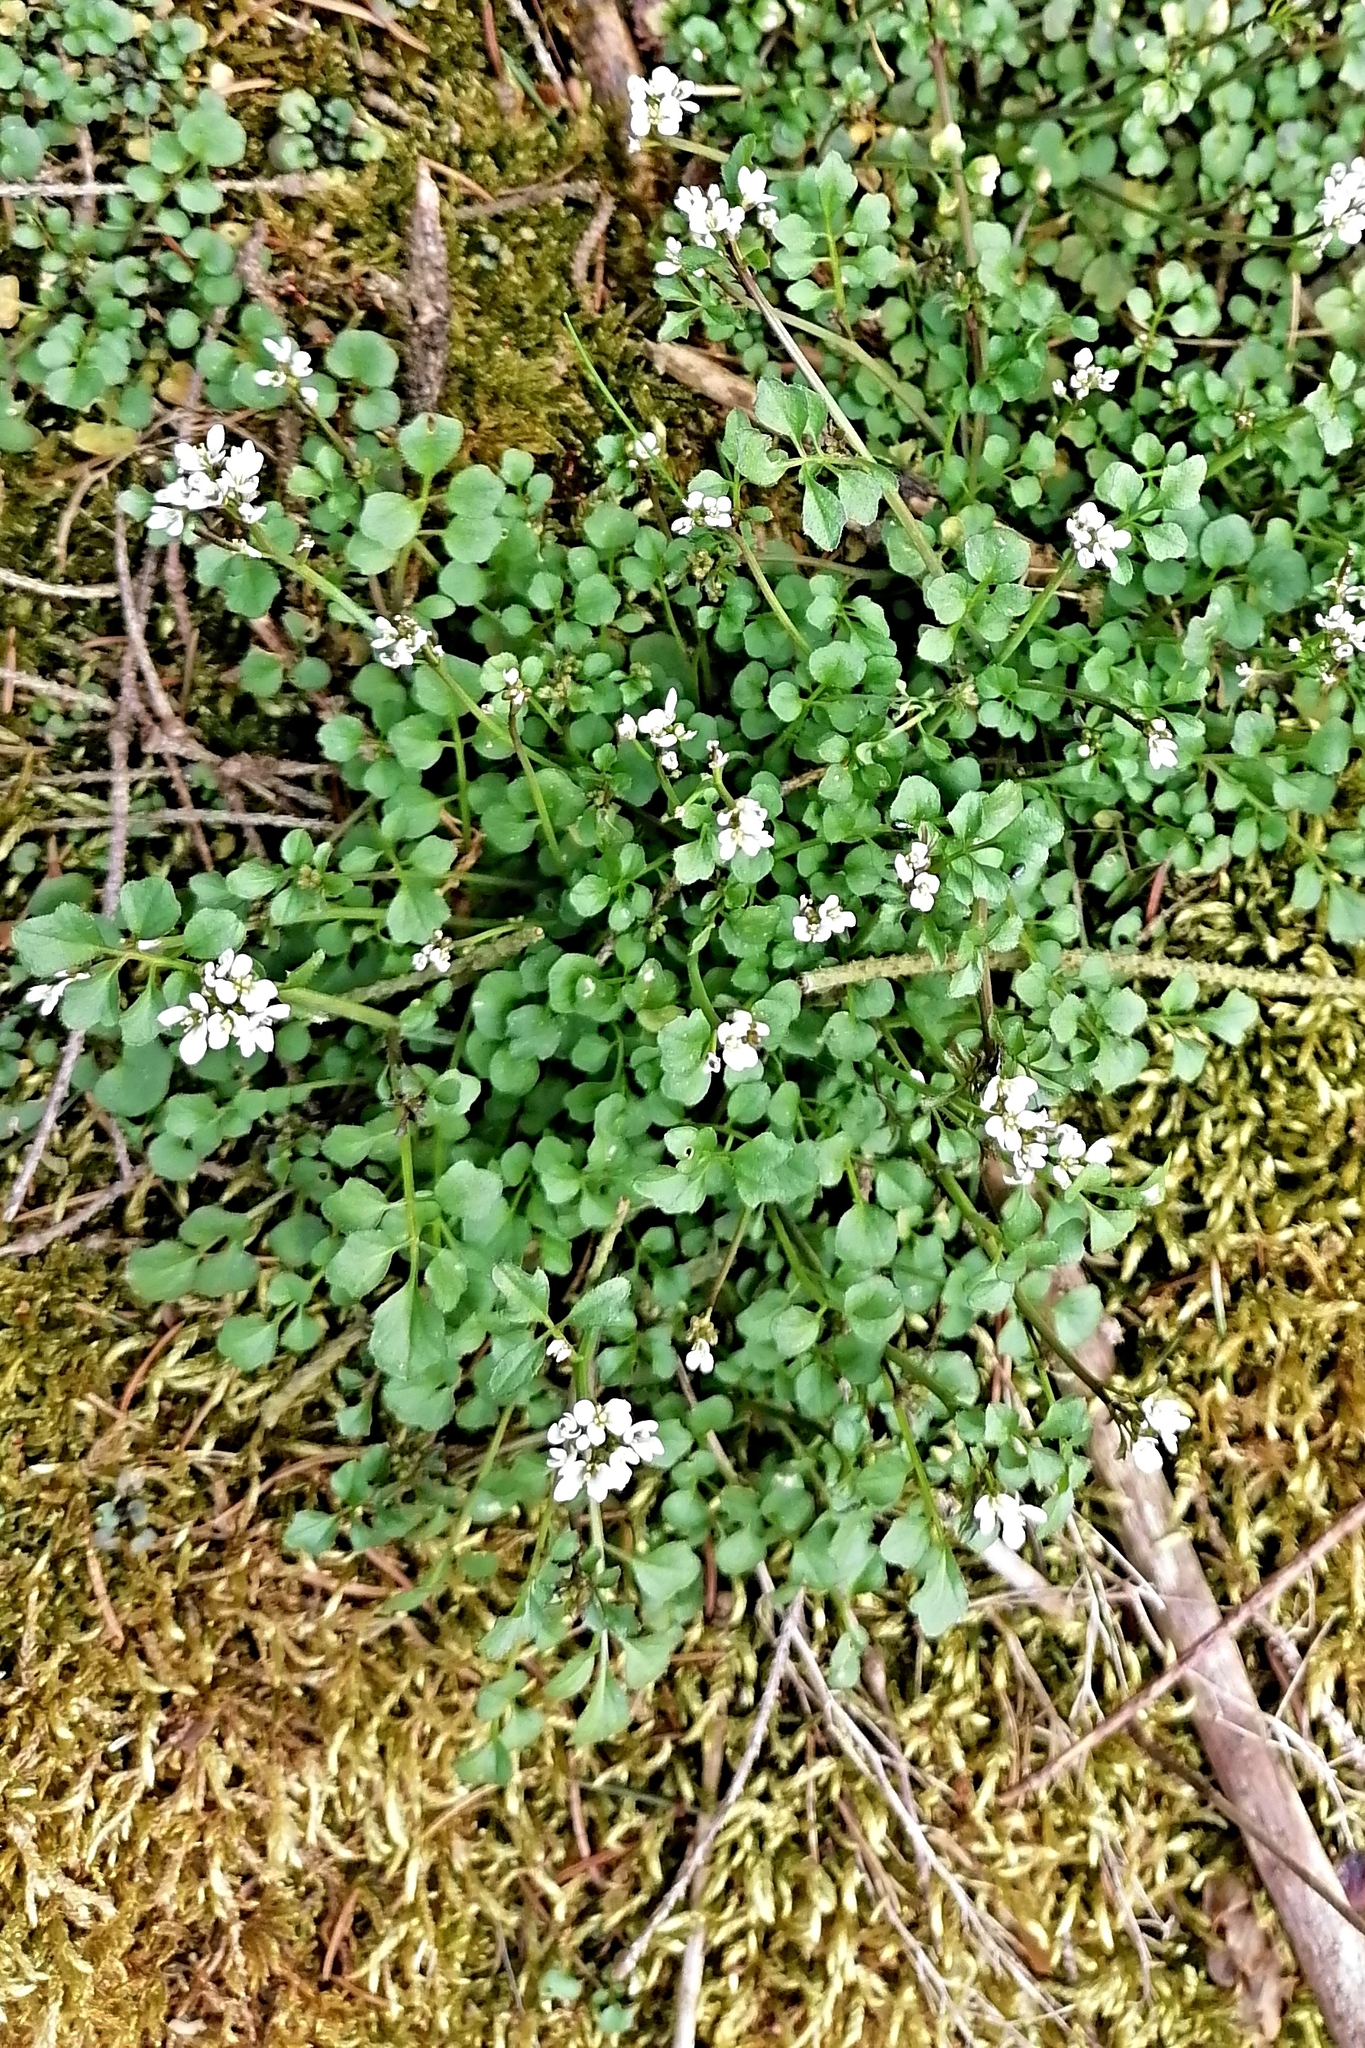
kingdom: Plantae
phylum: Tracheophyta
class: Magnoliopsida
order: Brassicales
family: Brassicaceae
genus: Cardamine
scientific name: Cardamine hirsuta
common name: Hairy bittercress
